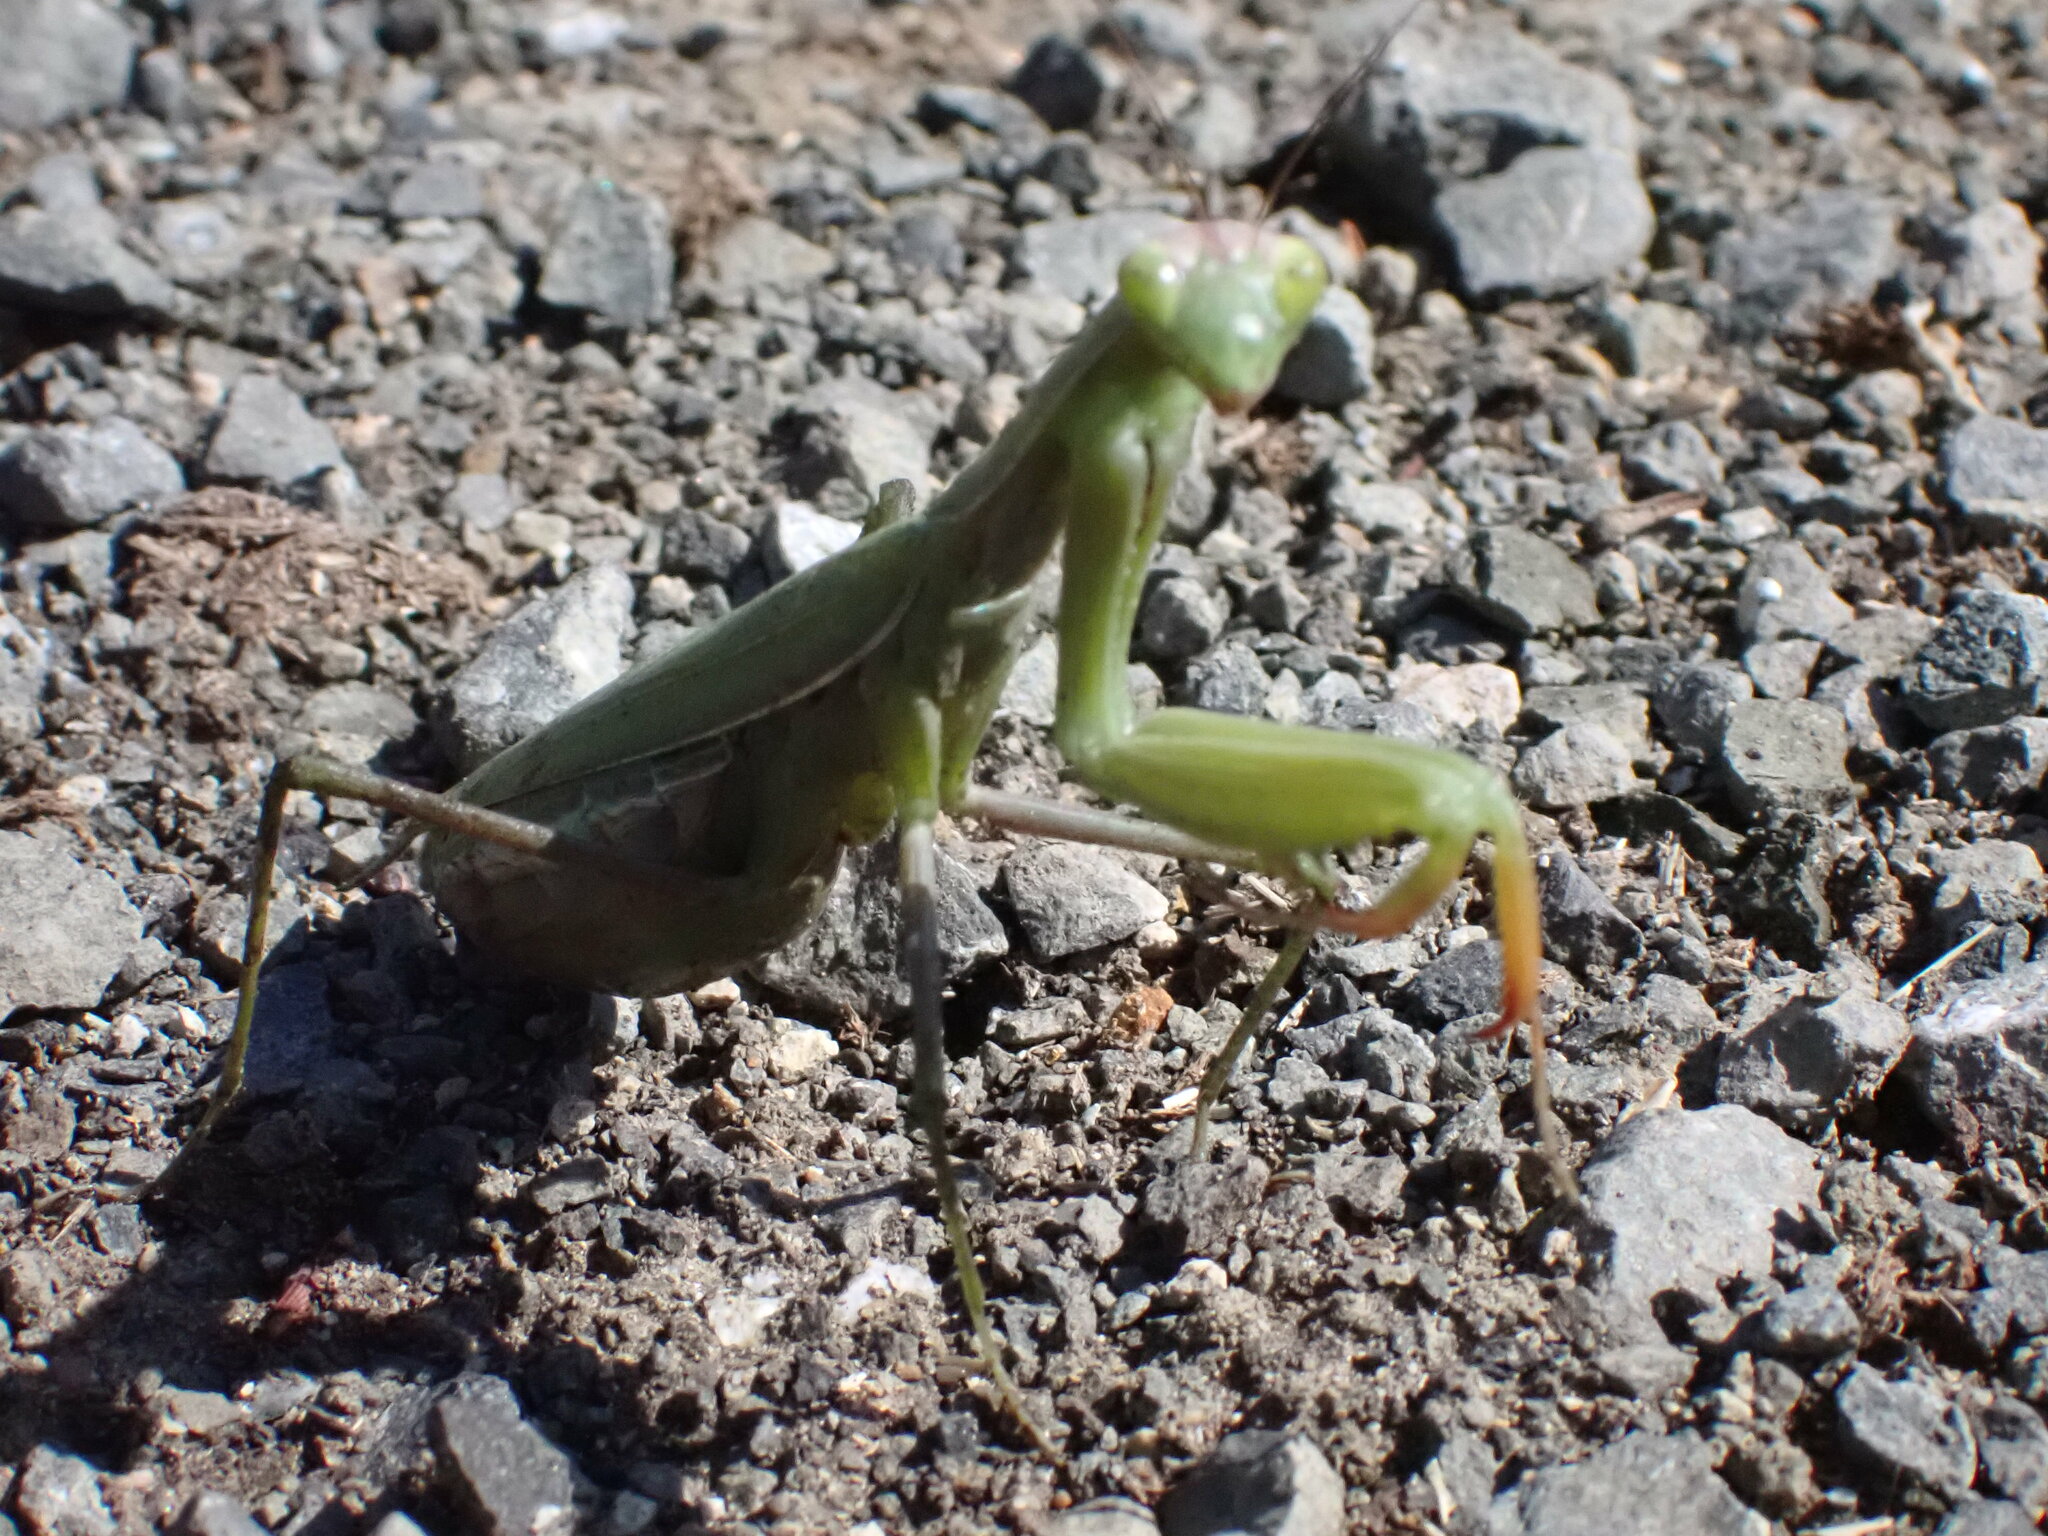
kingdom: Animalia
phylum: Arthropoda
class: Insecta
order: Mantodea
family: Mantidae
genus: Mantis
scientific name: Mantis religiosa
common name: Praying mantis
